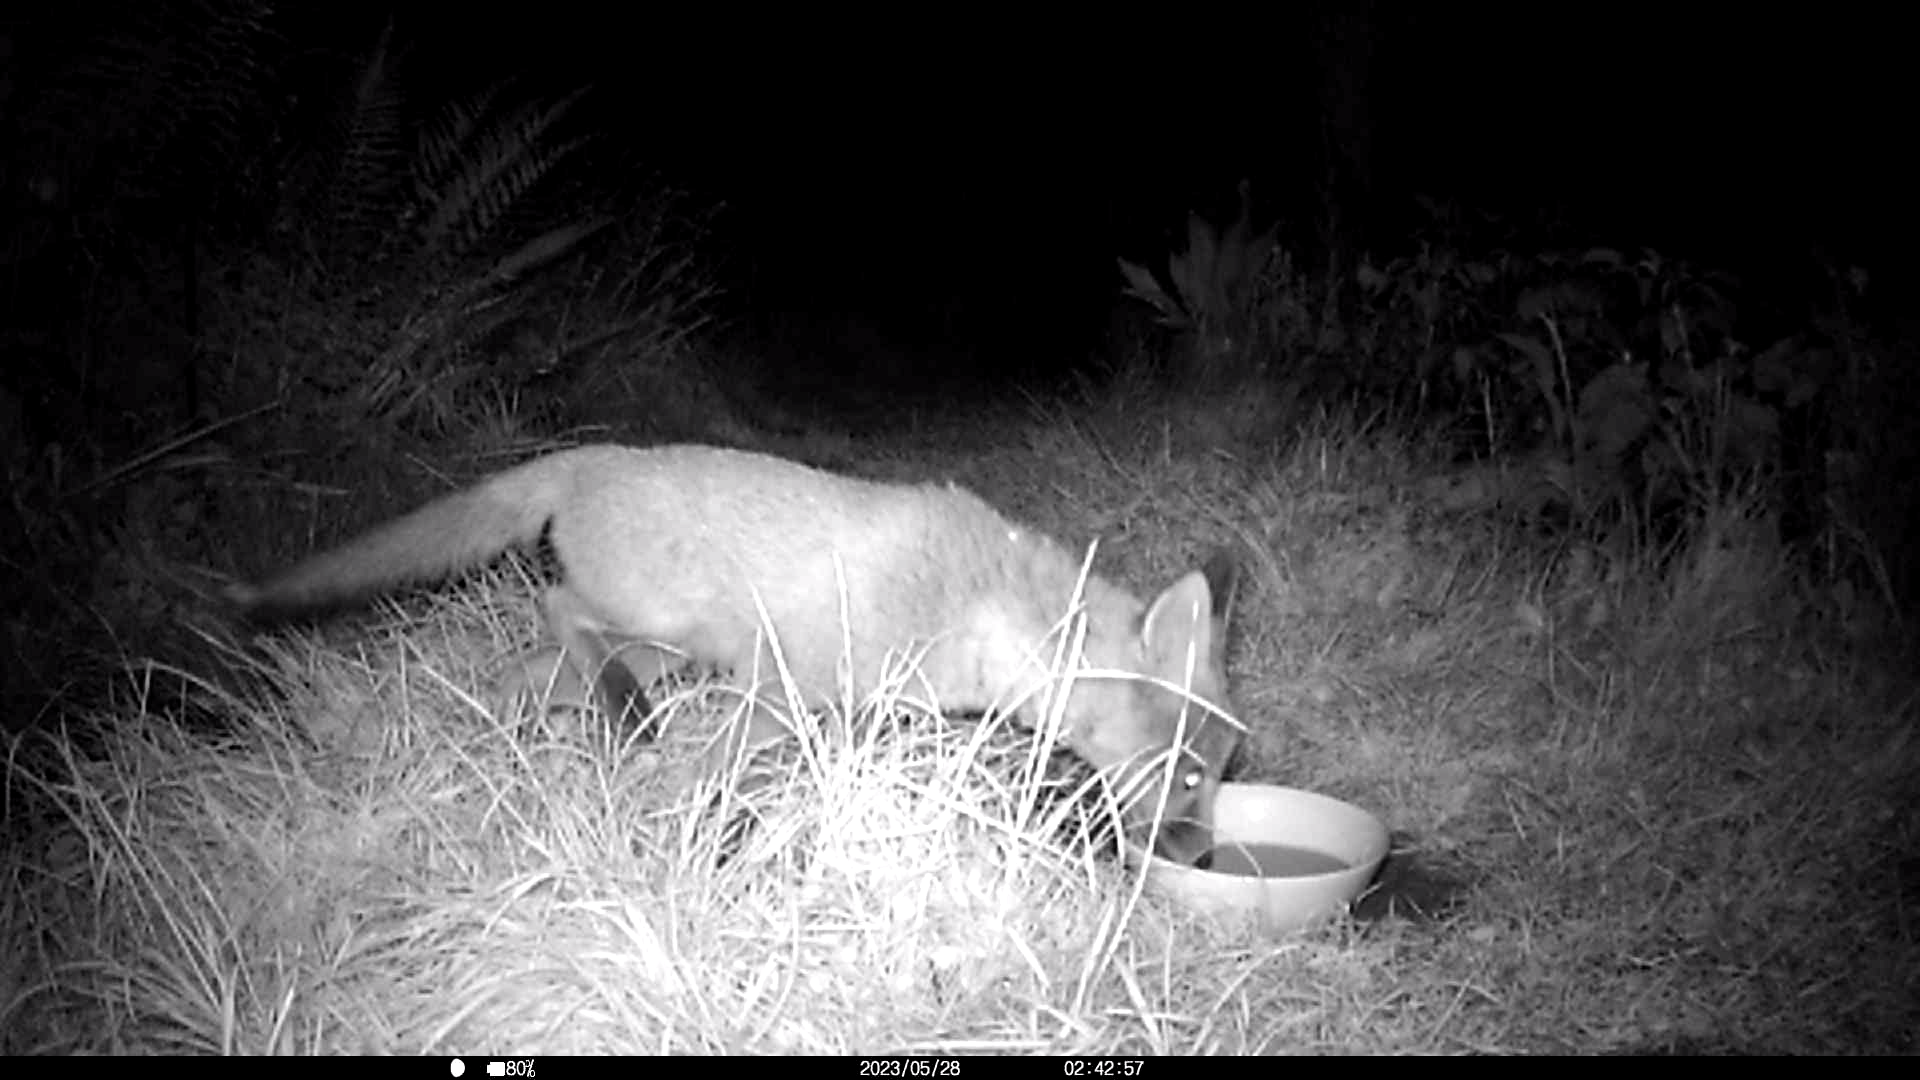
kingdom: Animalia
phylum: Chordata
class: Mammalia
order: Carnivora
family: Canidae
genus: Vulpes
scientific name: Vulpes vulpes
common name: Red fox
